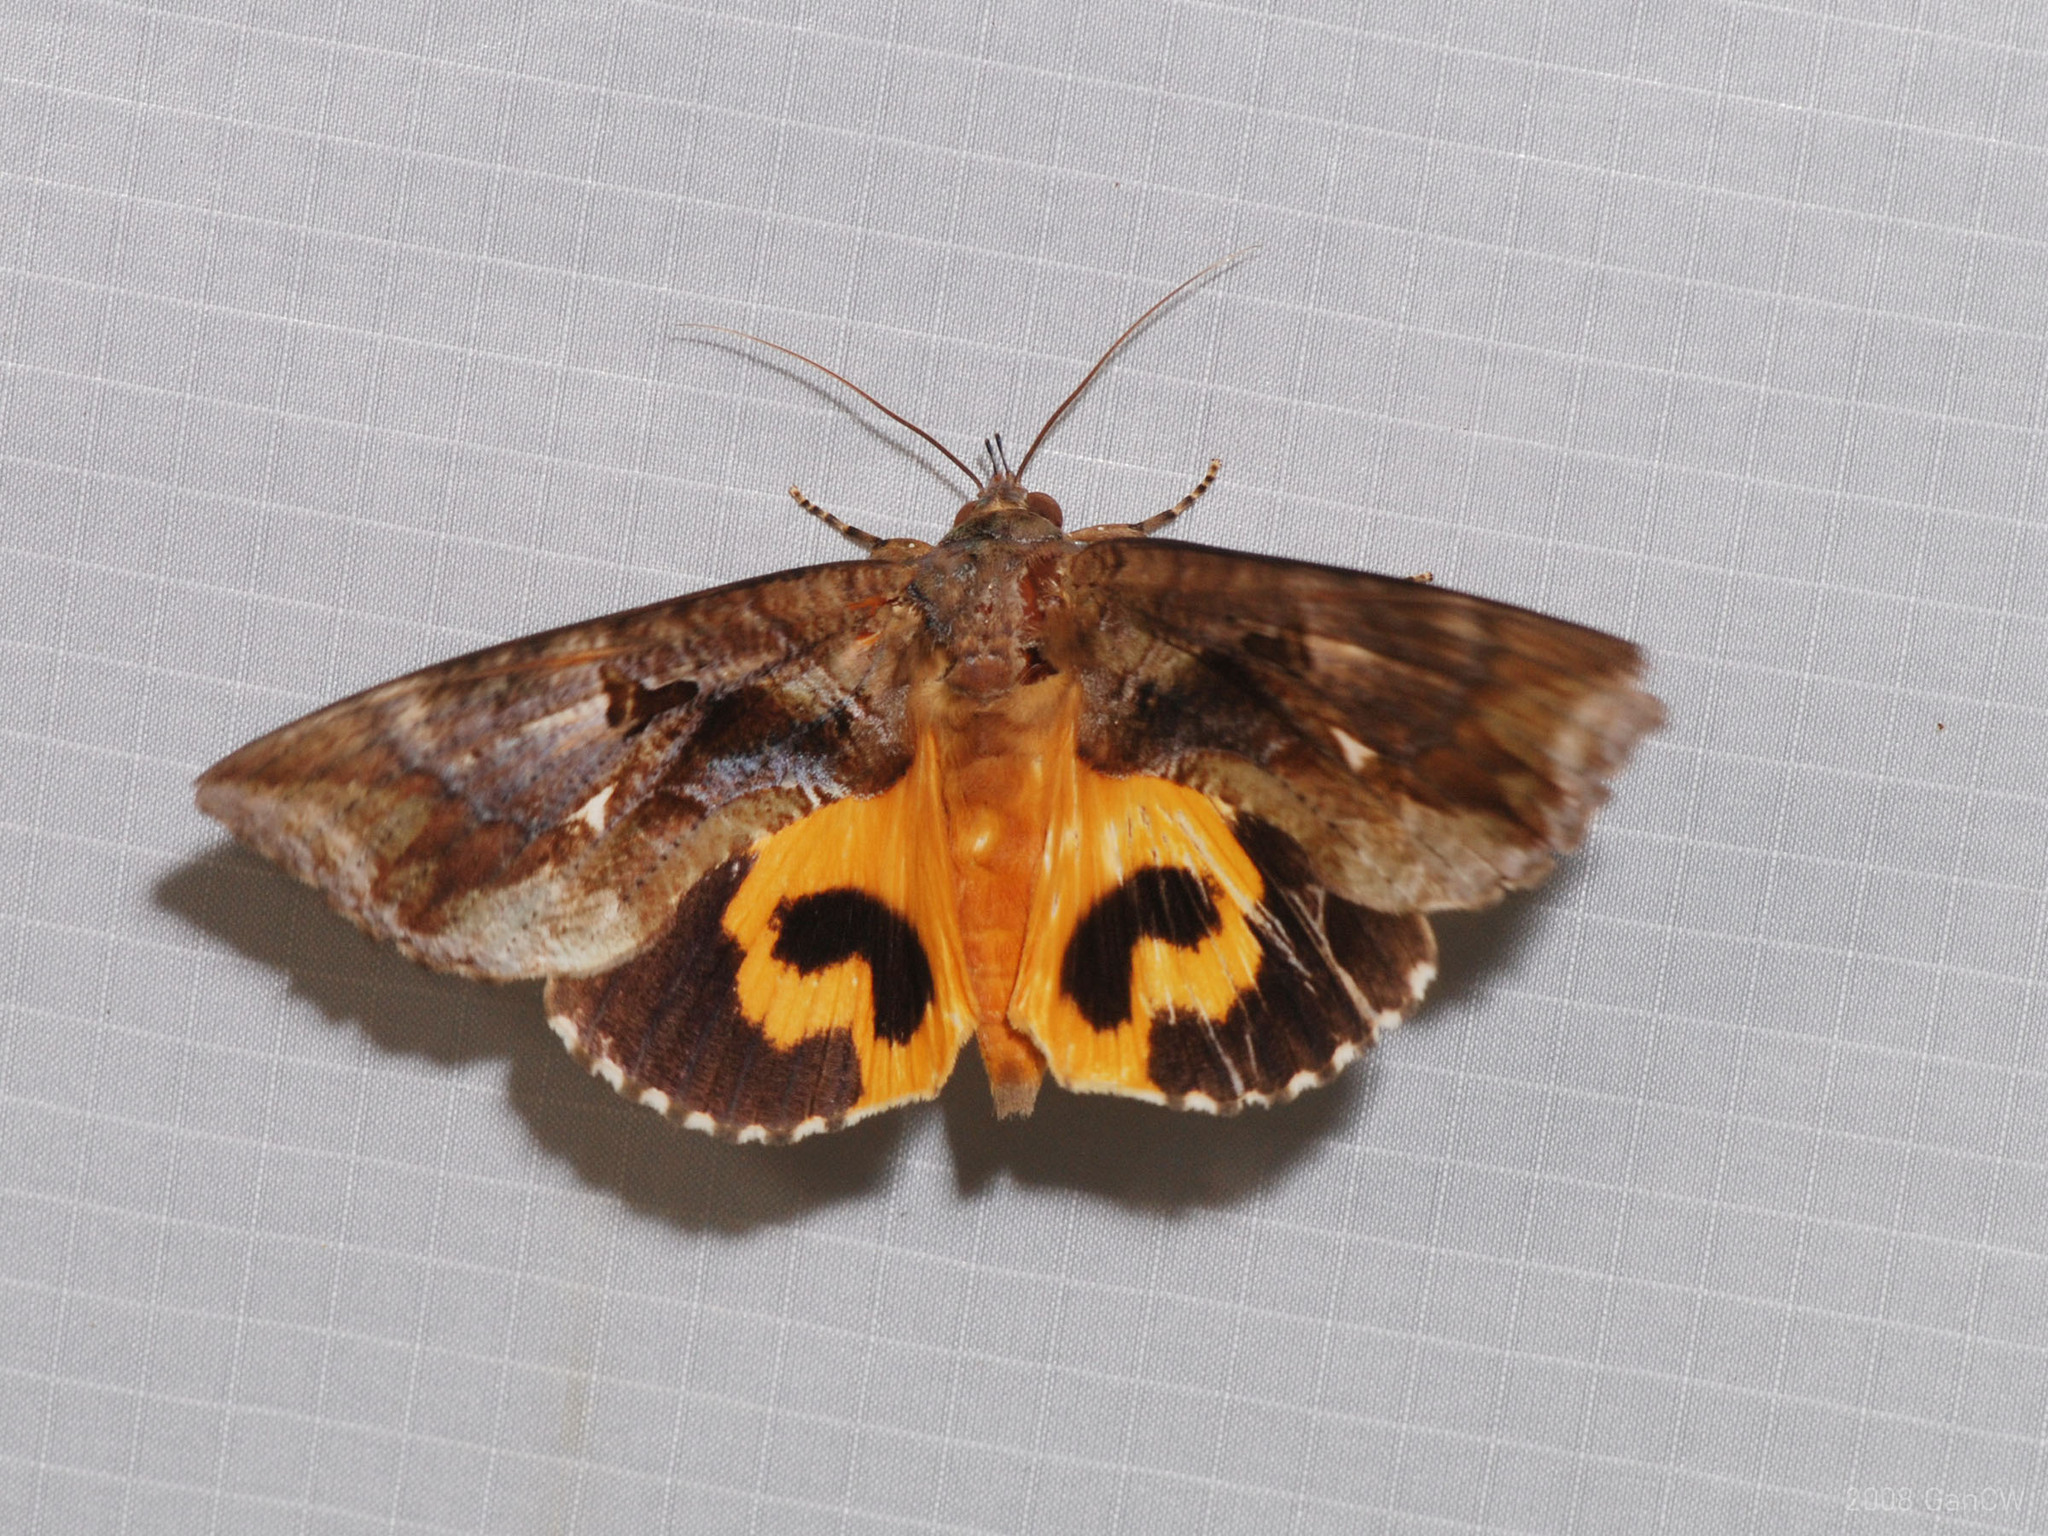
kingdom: Animalia
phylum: Arthropoda
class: Insecta
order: Lepidoptera
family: Erebidae
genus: Eudocima
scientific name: Eudocima phalonia
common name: Wasp
